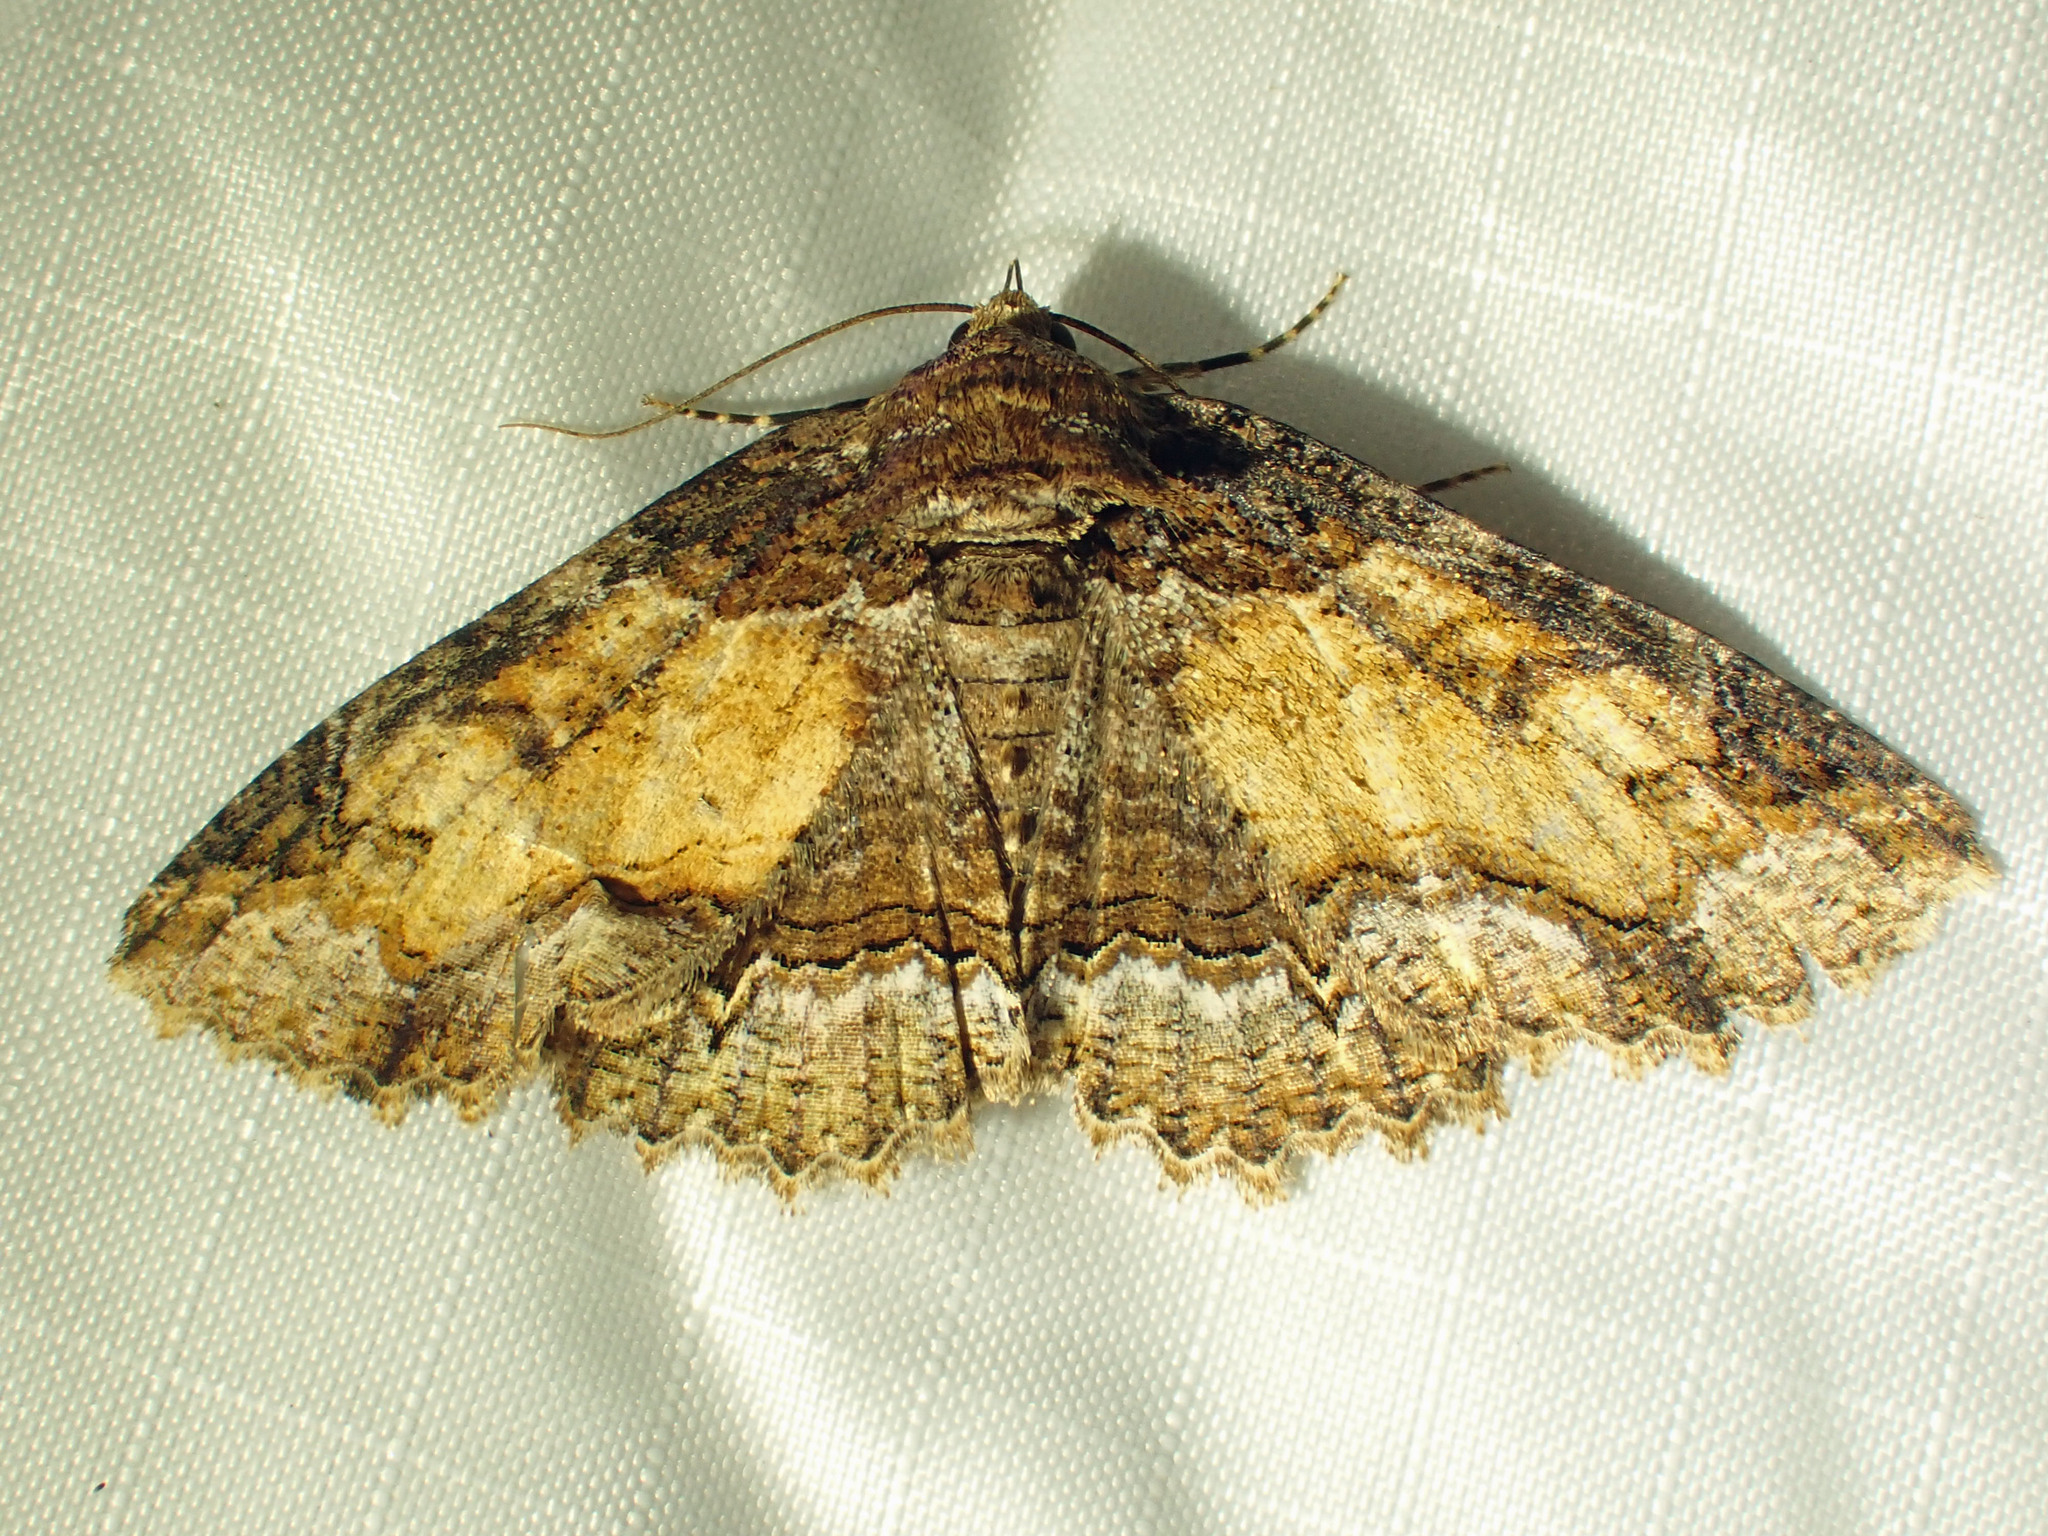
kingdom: Animalia
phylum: Arthropoda
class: Insecta
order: Lepidoptera
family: Erebidae
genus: Zale
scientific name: Zale minerea
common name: Colorful zale moth
